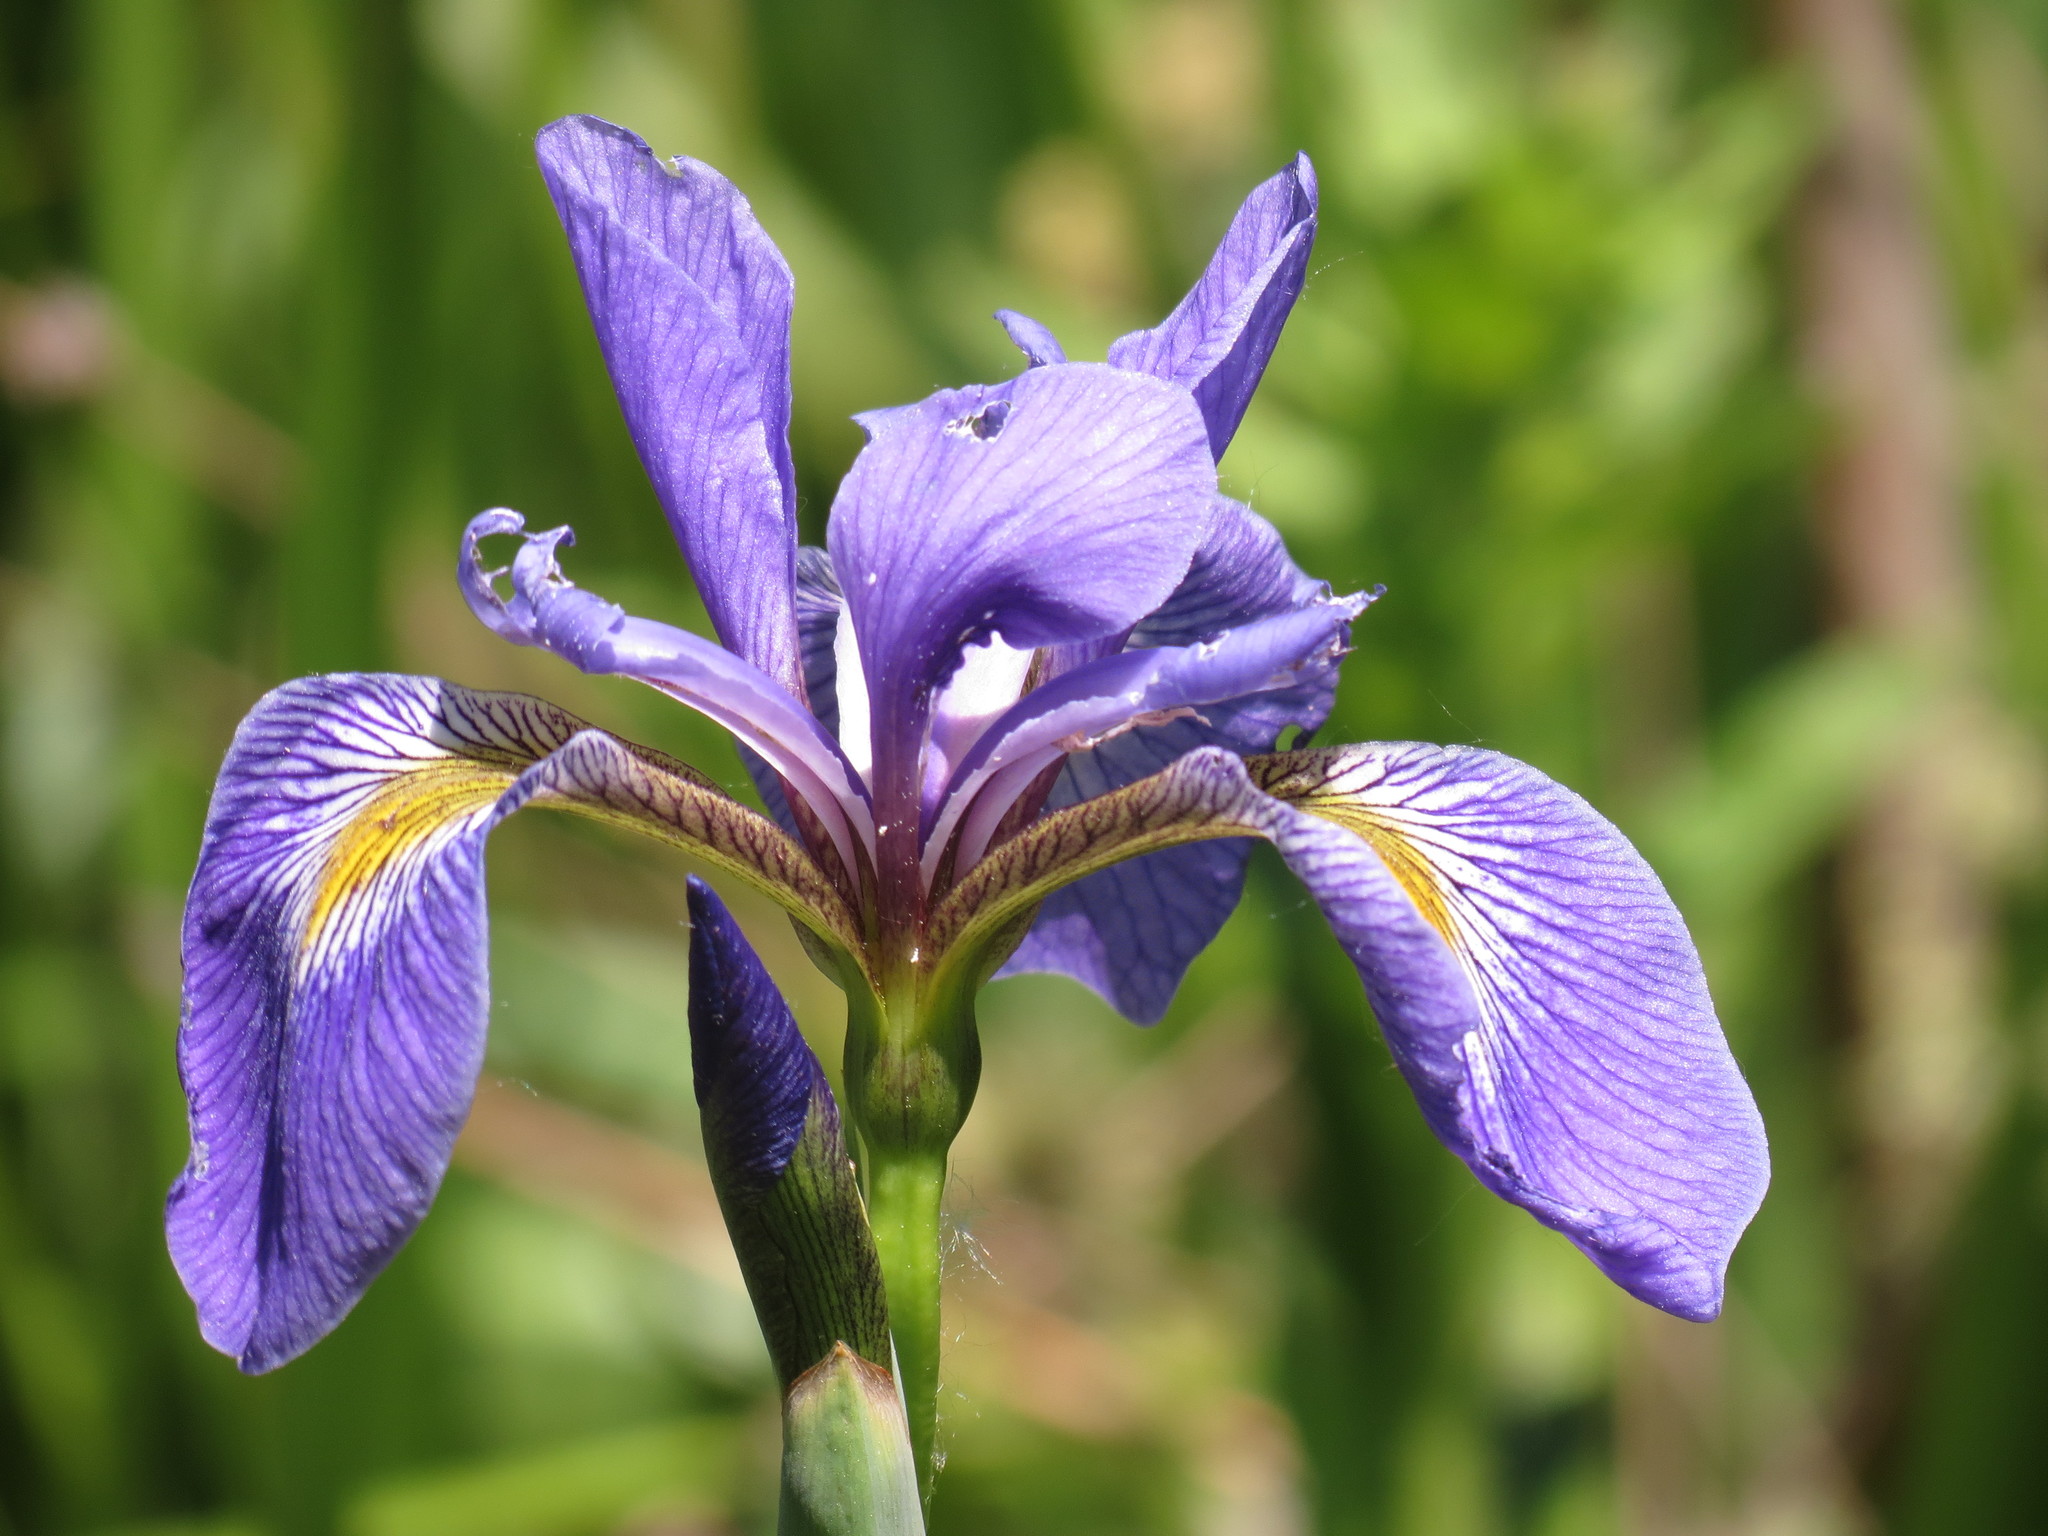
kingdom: Plantae
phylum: Tracheophyta
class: Liliopsida
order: Asparagales
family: Iridaceae
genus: Iris
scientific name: Iris virginica
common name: Southern blue flag
